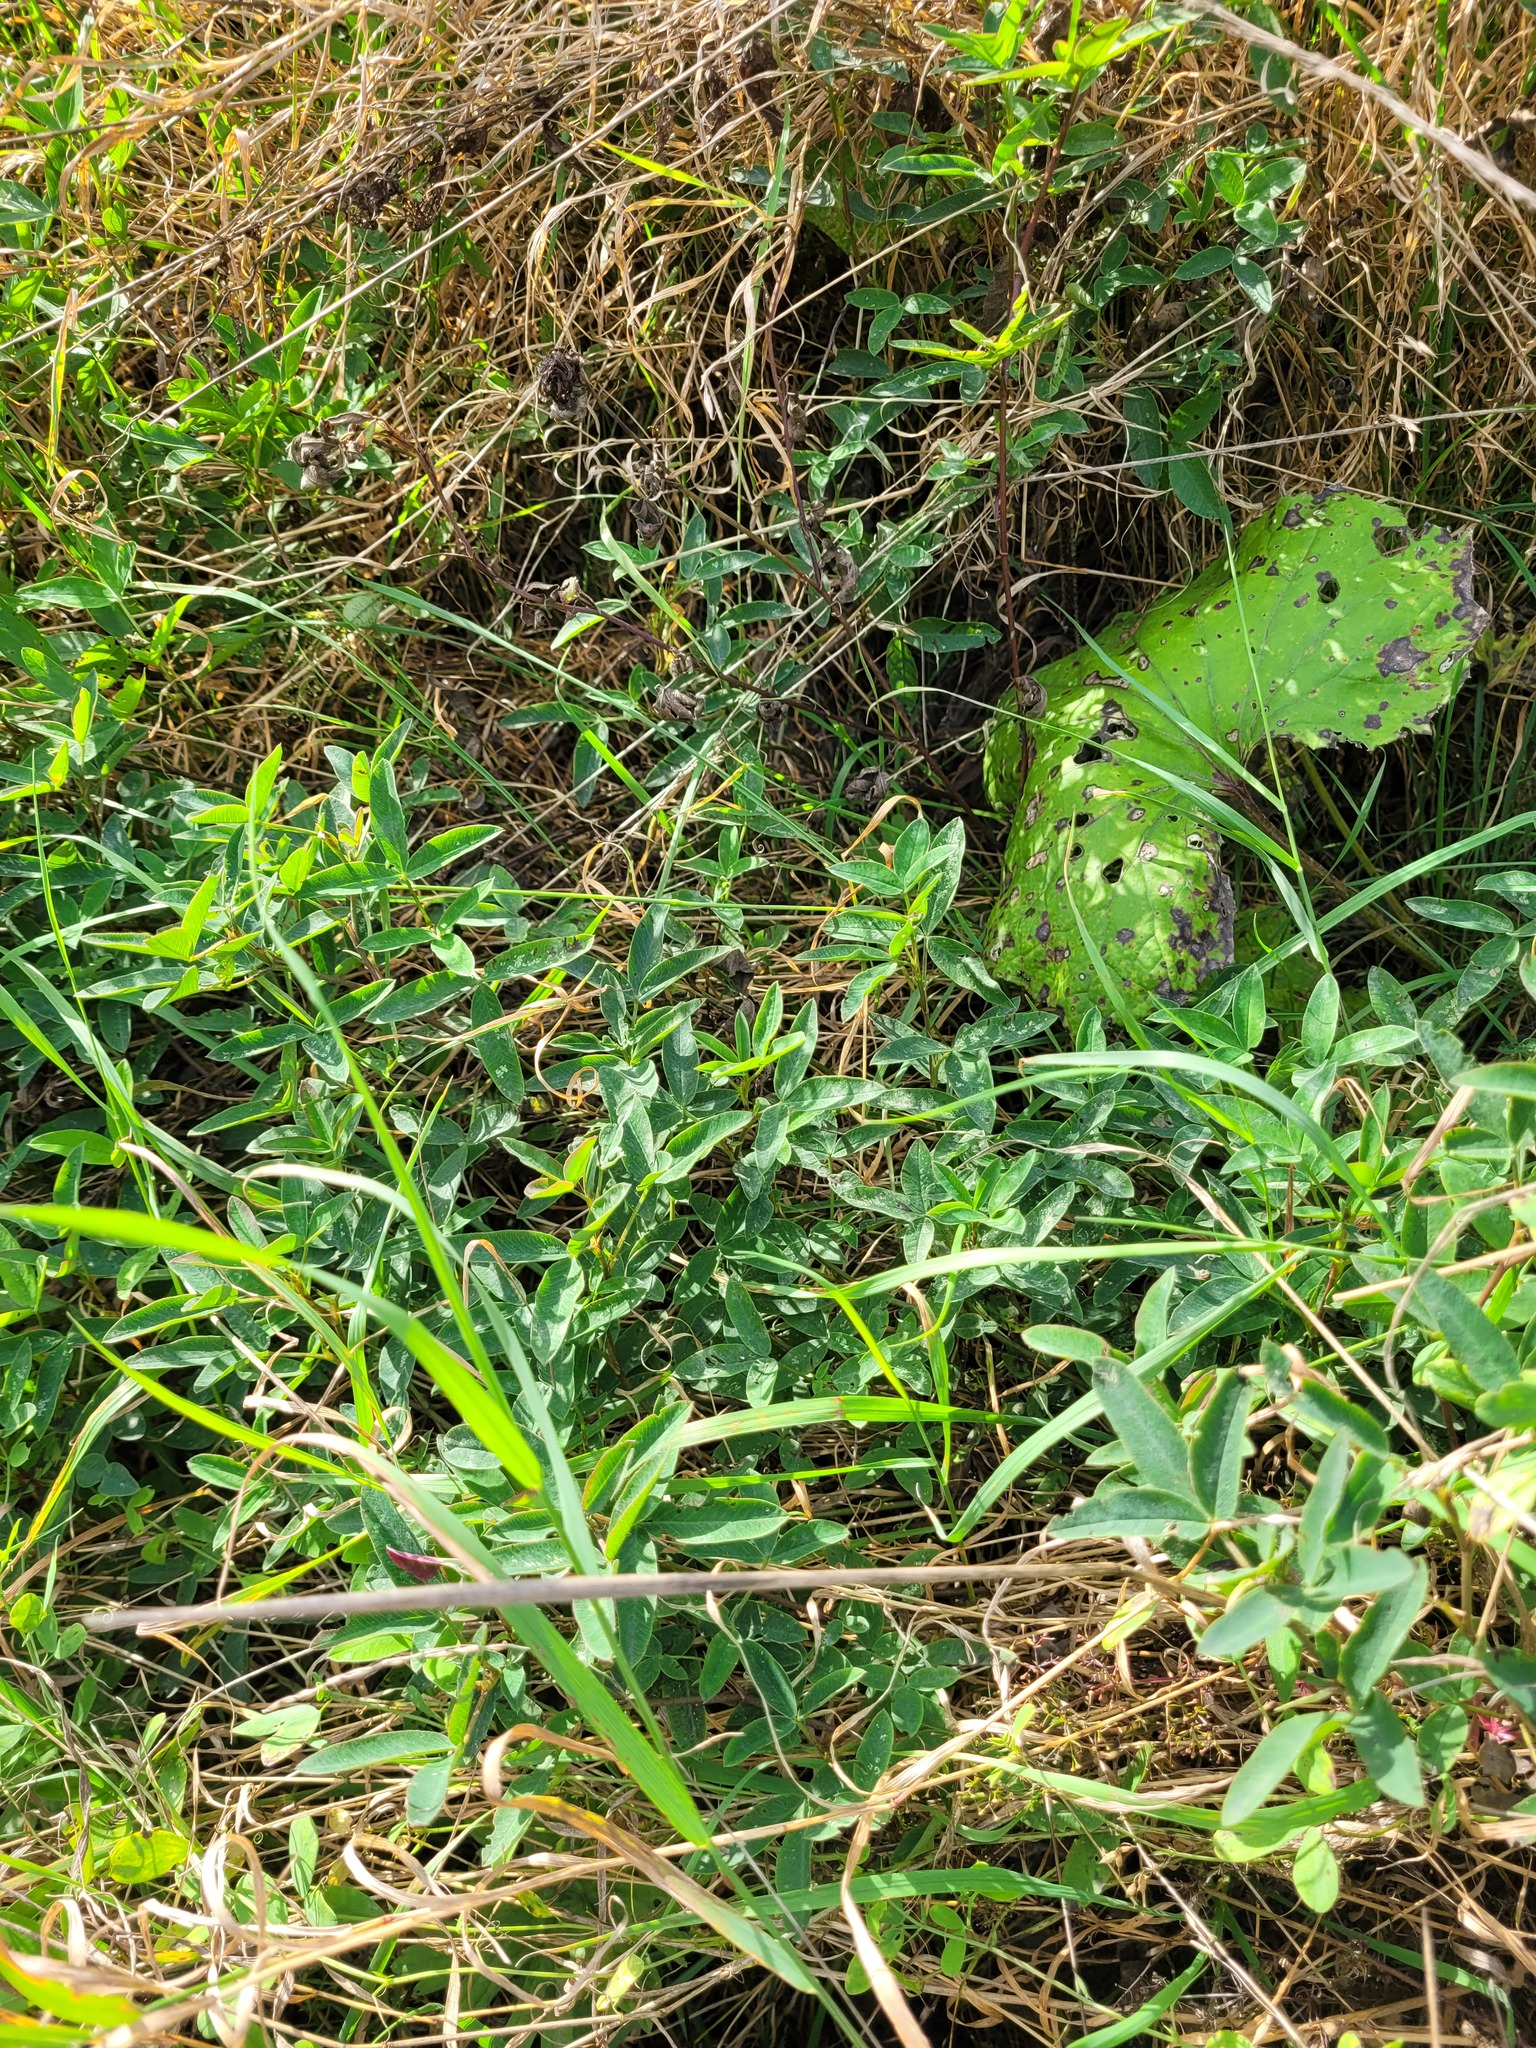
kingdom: Plantae
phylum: Tracheophyta
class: Magnoliopsida
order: Fabales
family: Fabaceae
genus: Trifolium
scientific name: Trifolium medium
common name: Zigzag clover
